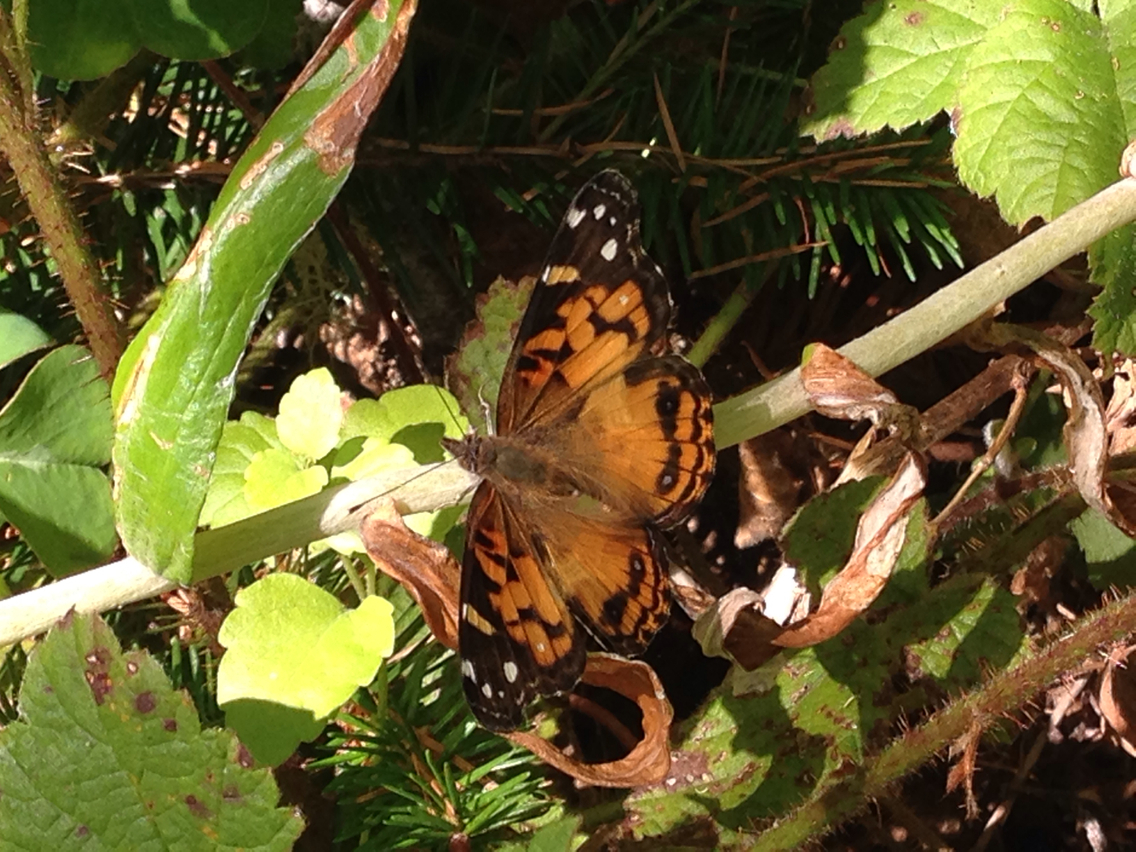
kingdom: Animalia
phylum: Arthropoda
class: Insecta
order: Lepidoptera
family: Nymphalidae
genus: Vanessa
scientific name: Vanessa virginiensis
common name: American lady
